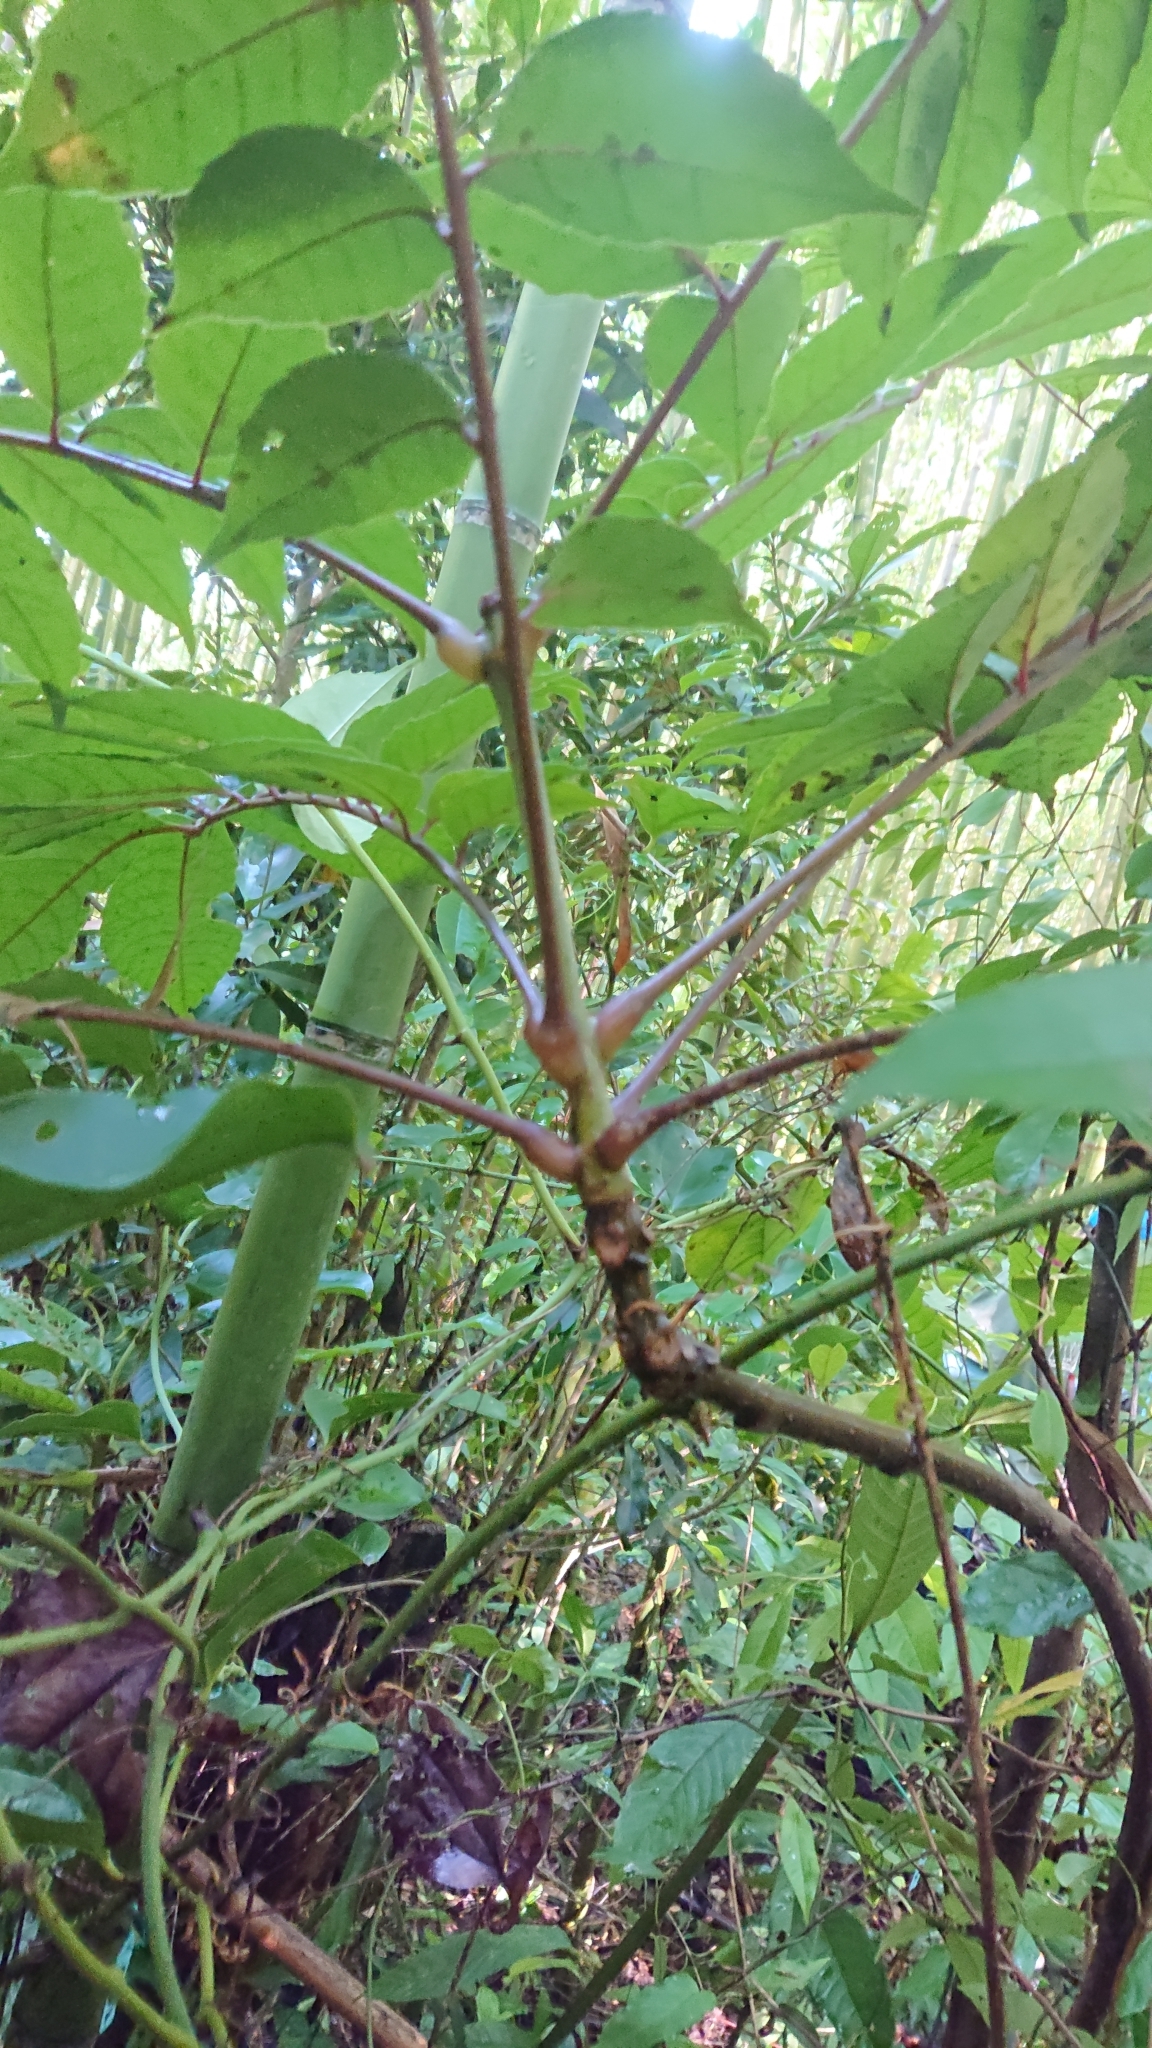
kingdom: Plantae
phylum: Tracheophyta
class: Magnoliopsida
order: Proteales
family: Sabiaceae
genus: Meliosma
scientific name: Meliosma rhoifolia
